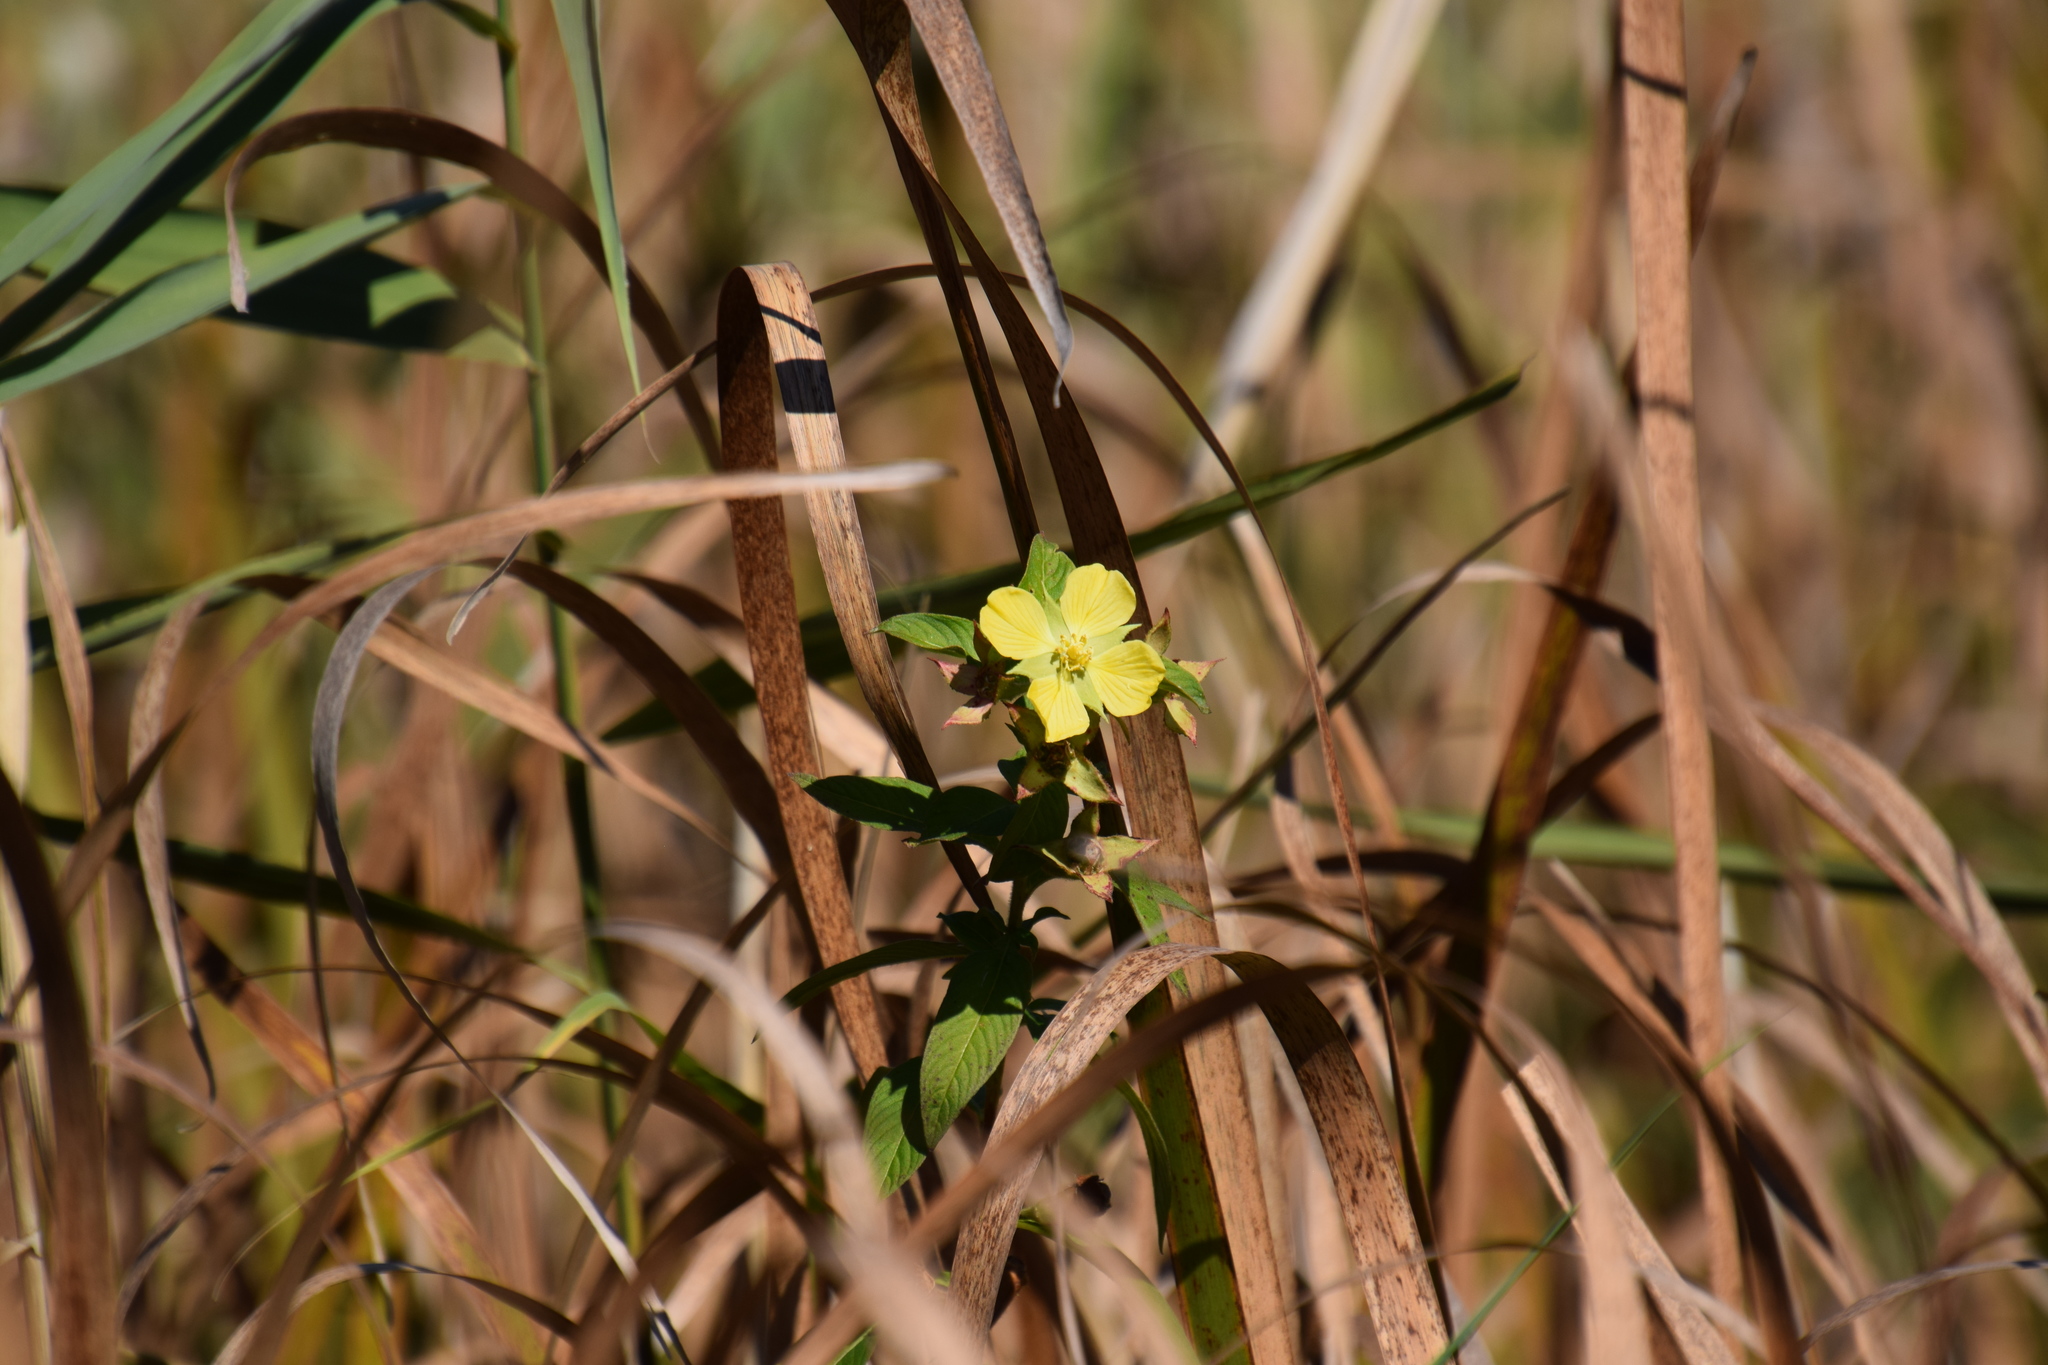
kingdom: Plantae
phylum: Tracheophyta
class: Magnoliopsida
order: Myrtales
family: Onagraceae
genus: Ludwigia
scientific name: Ludwigia peruviana
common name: Peruvian primrose-willow
